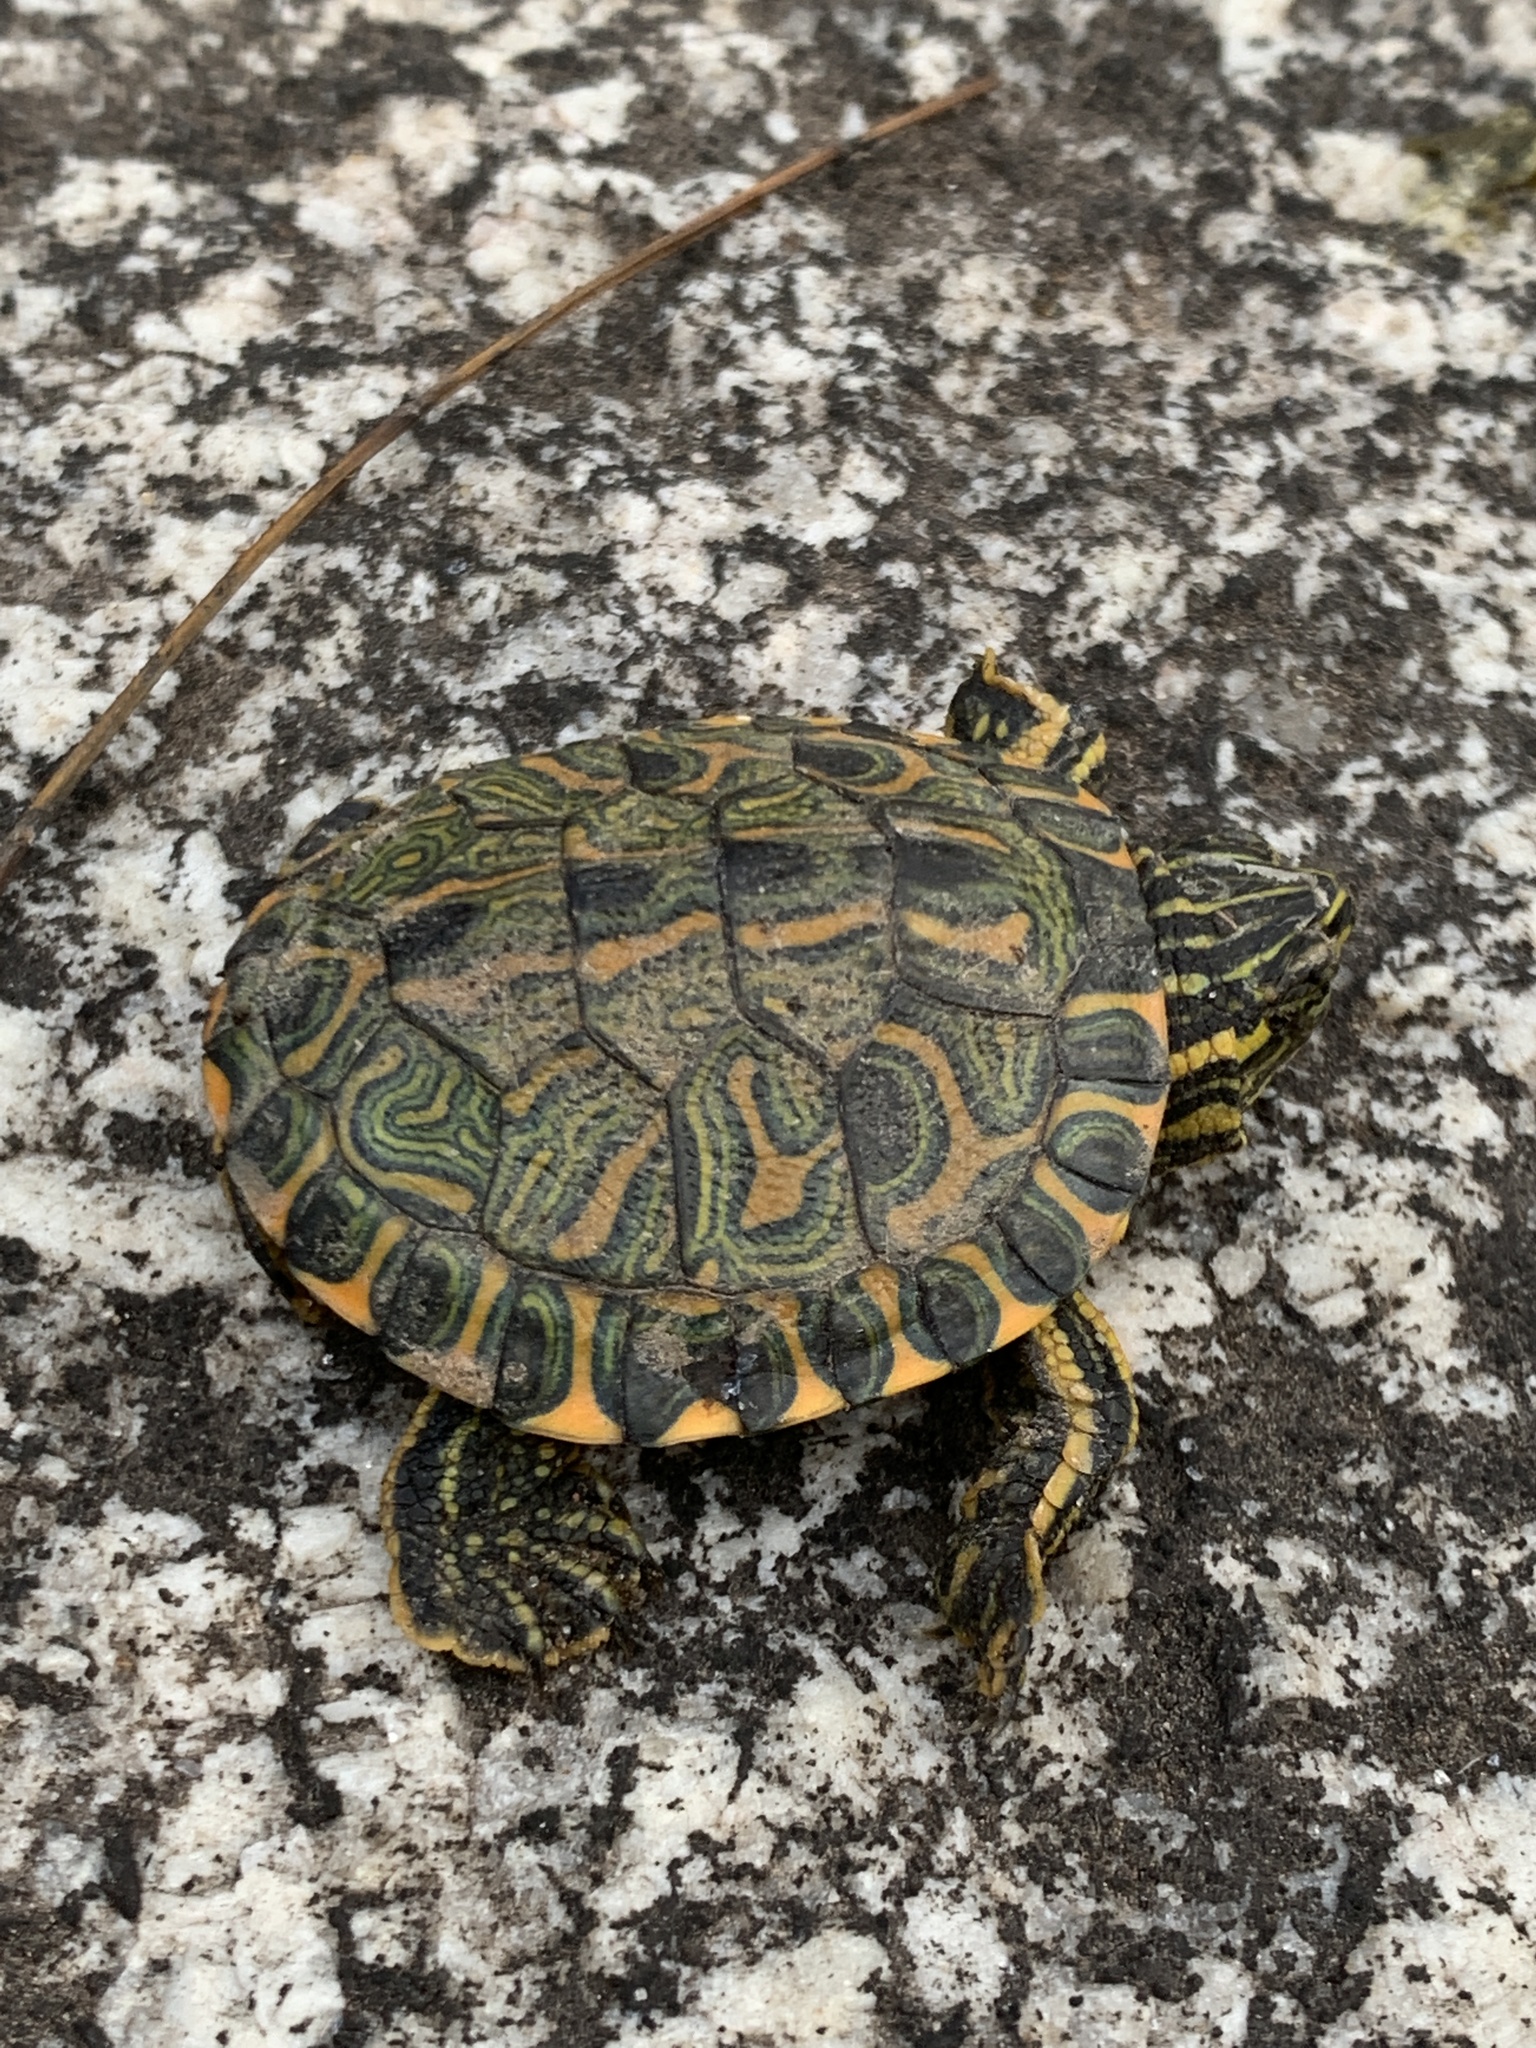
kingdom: Animalia
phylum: Chordata
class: Testudines
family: Emydidae
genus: Trachemys
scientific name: Trachemys dorbigni
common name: Black-bellied slider
